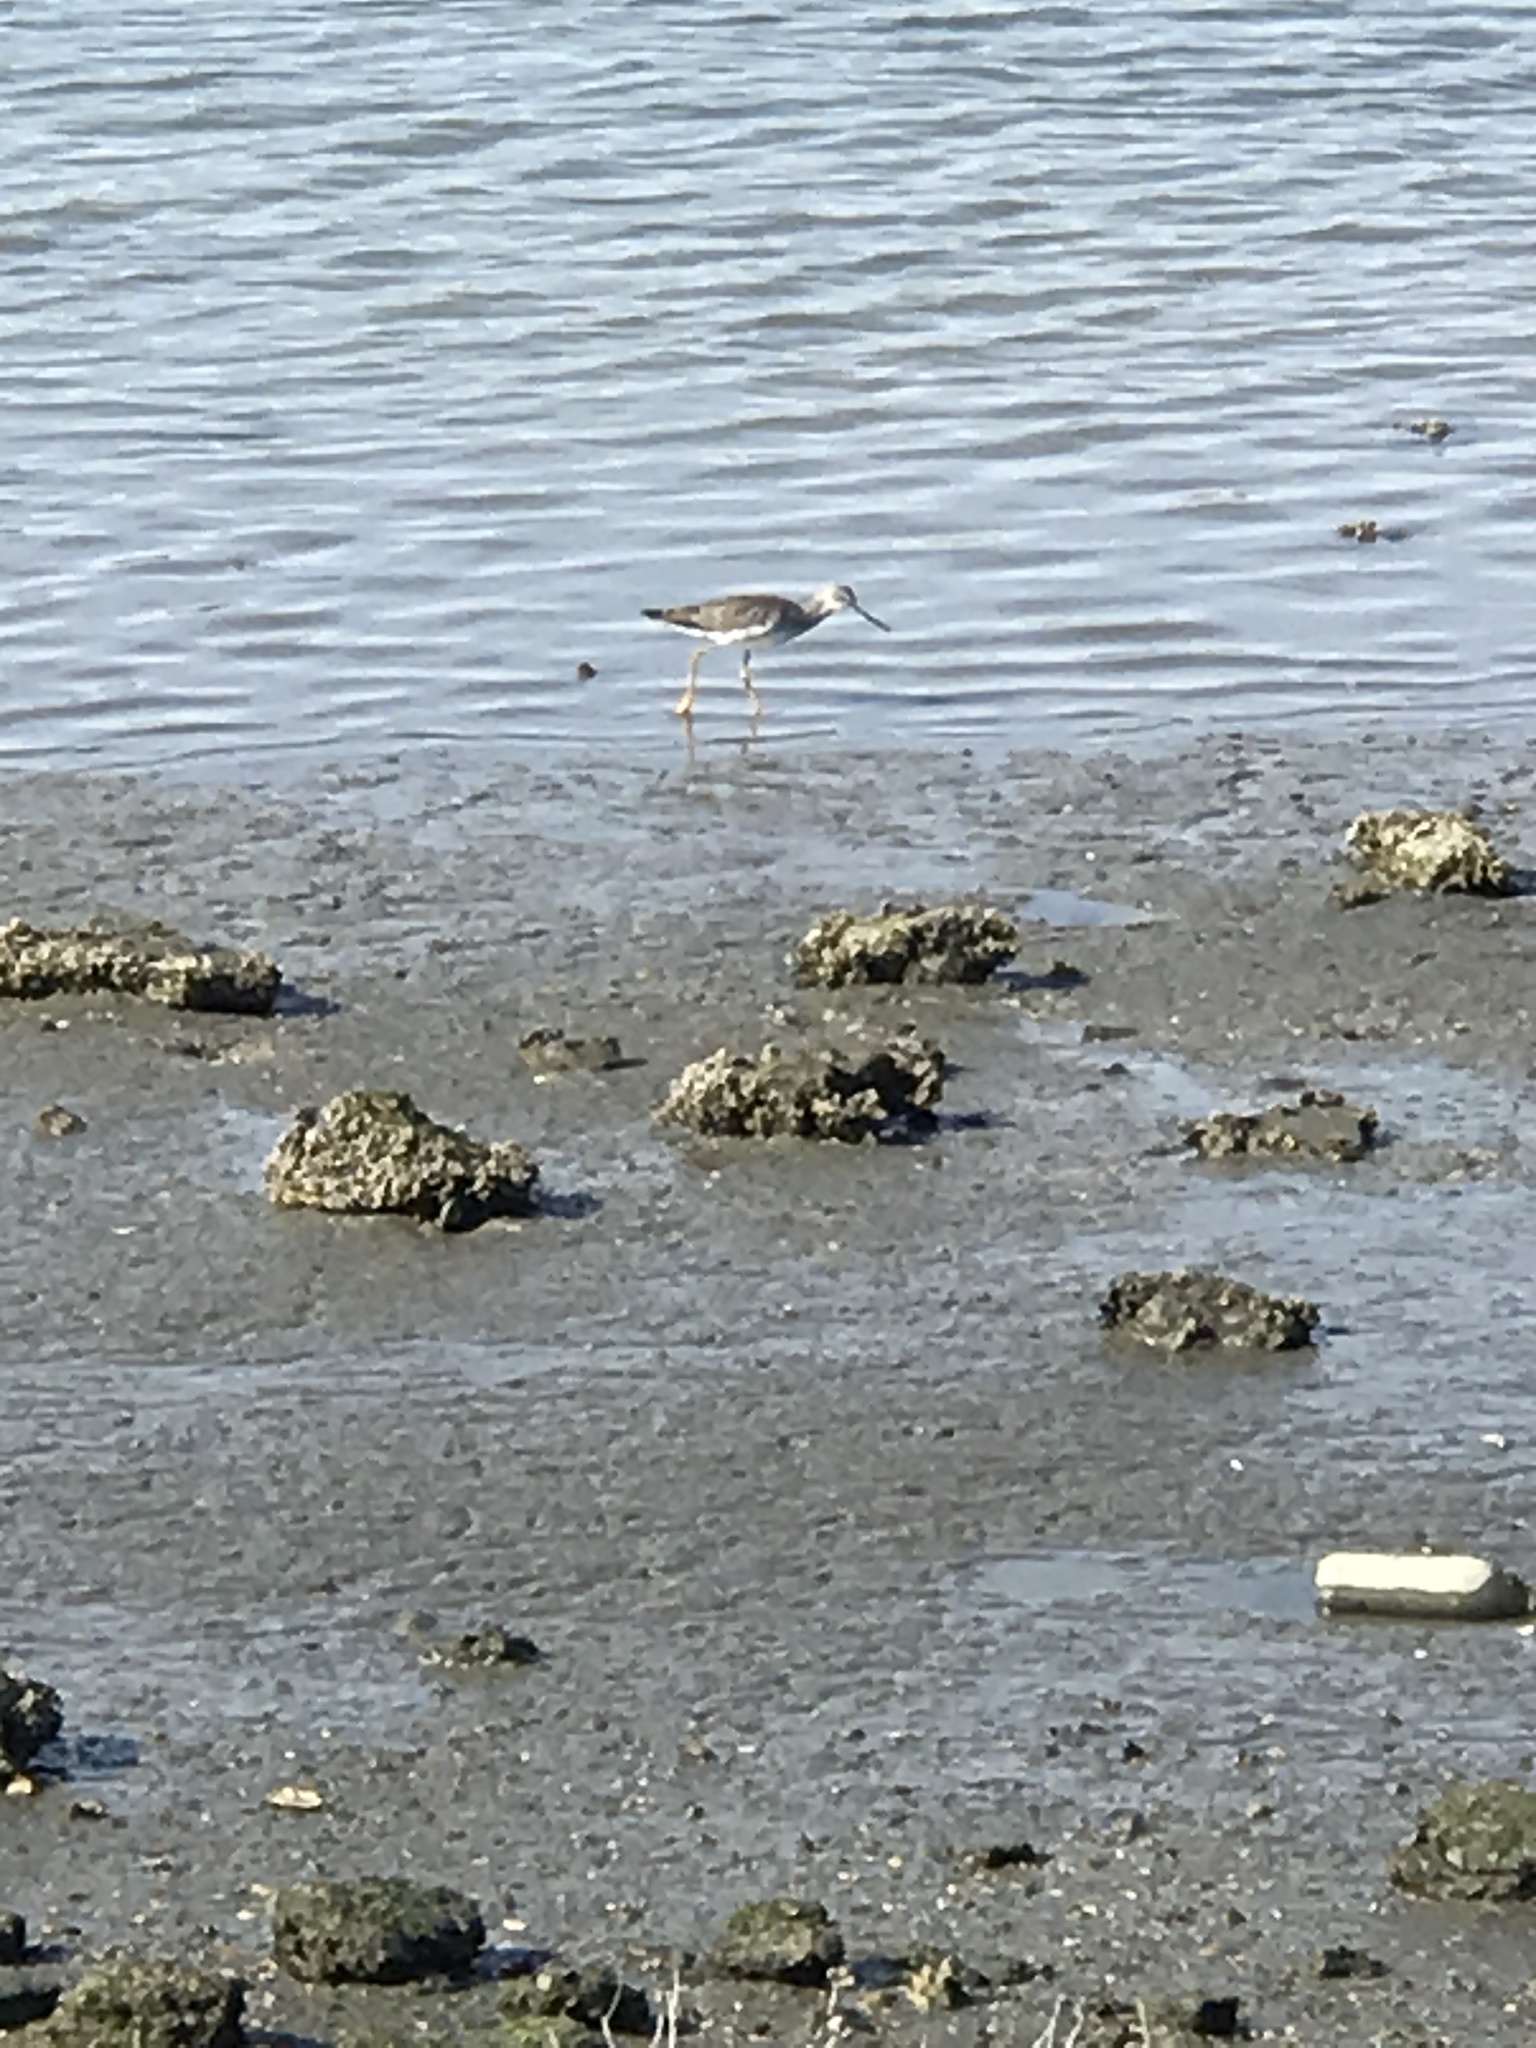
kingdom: Animalia
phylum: Chordata
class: Aves
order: Charadriiformes
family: Scolopacidae
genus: Tringa
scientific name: Tringa melanoleuca
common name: Greater yellowlegs
